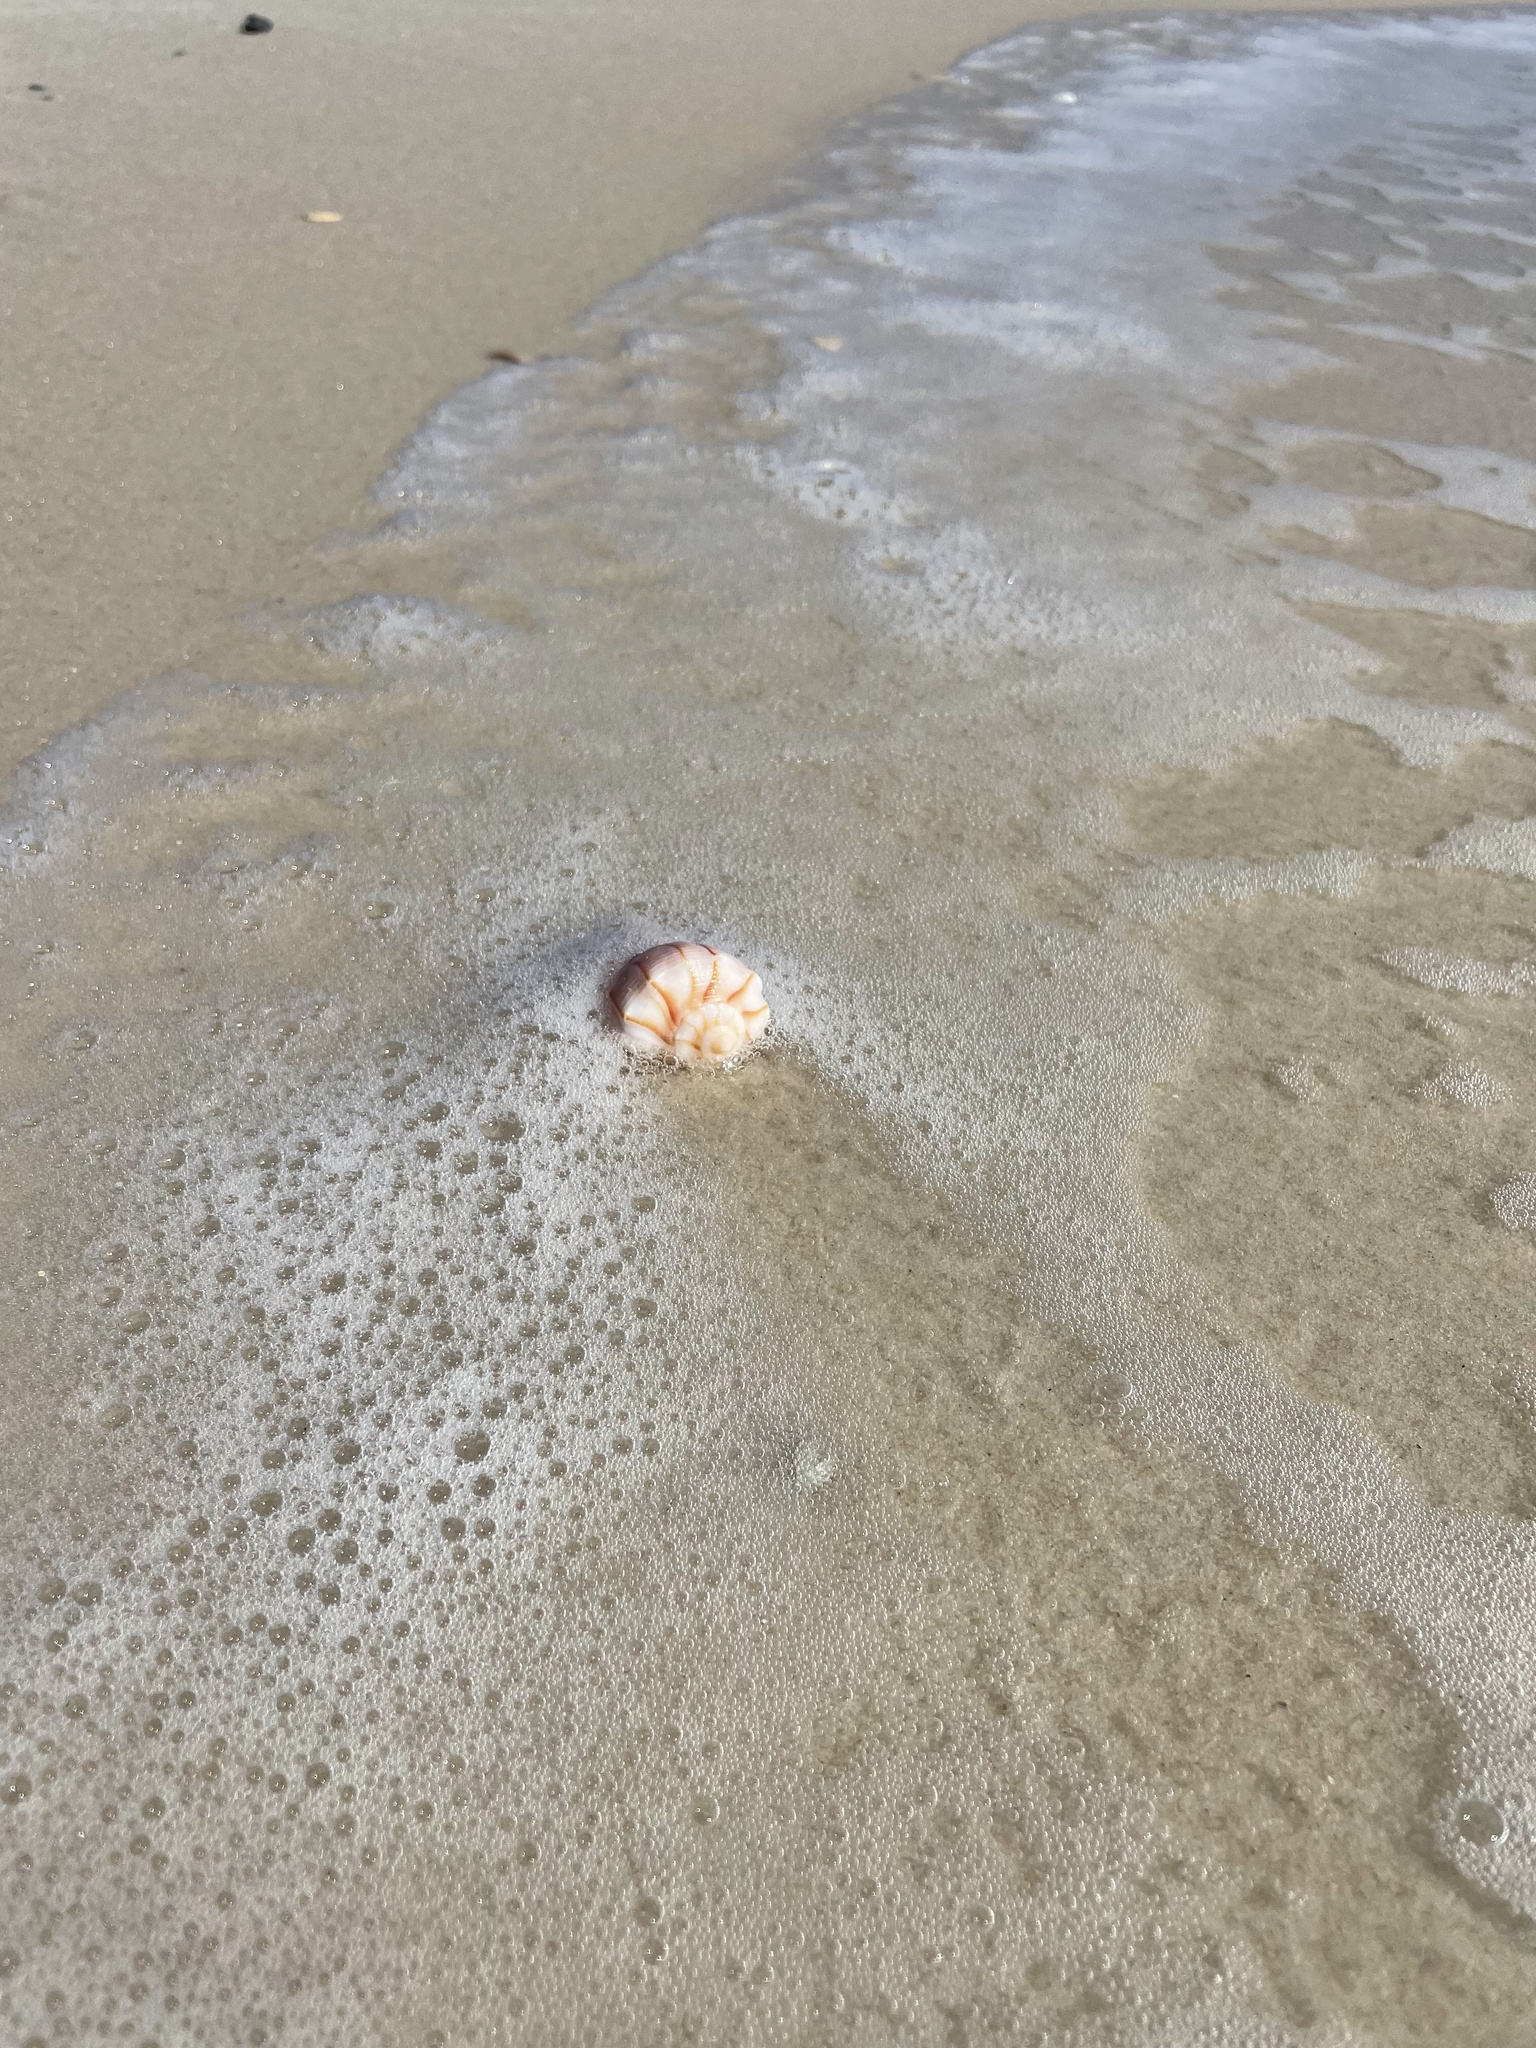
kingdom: Animalia
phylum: Mollusca
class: Gastropoda
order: Neogastropoda
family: Busyconidae
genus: Sinistrofulgur
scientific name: Sinistrofulgur sinistrum
